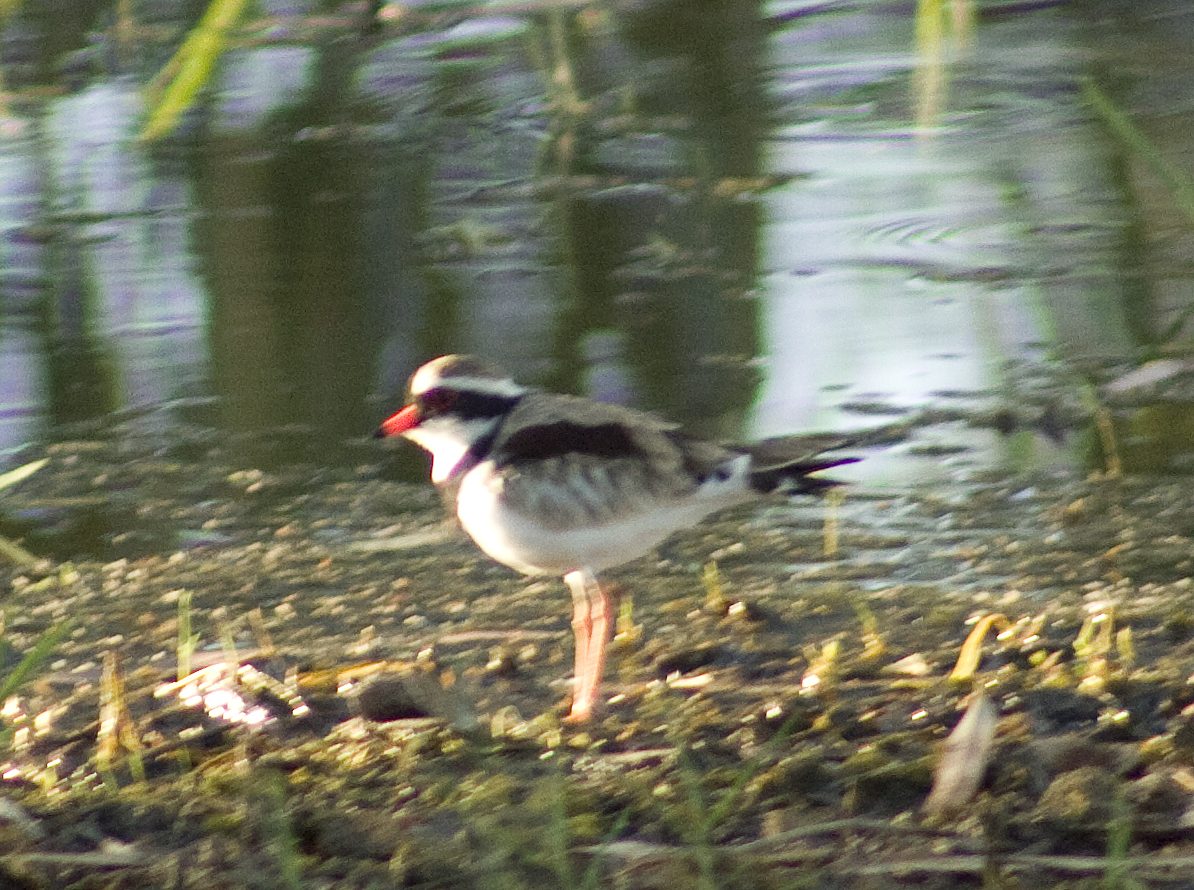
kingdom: Animalia
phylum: Chordata
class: Aves
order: Charadriiformes
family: Charadriidae
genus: Elseyornis
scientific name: Elseyornis melanops
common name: Black-fronted dotterel
